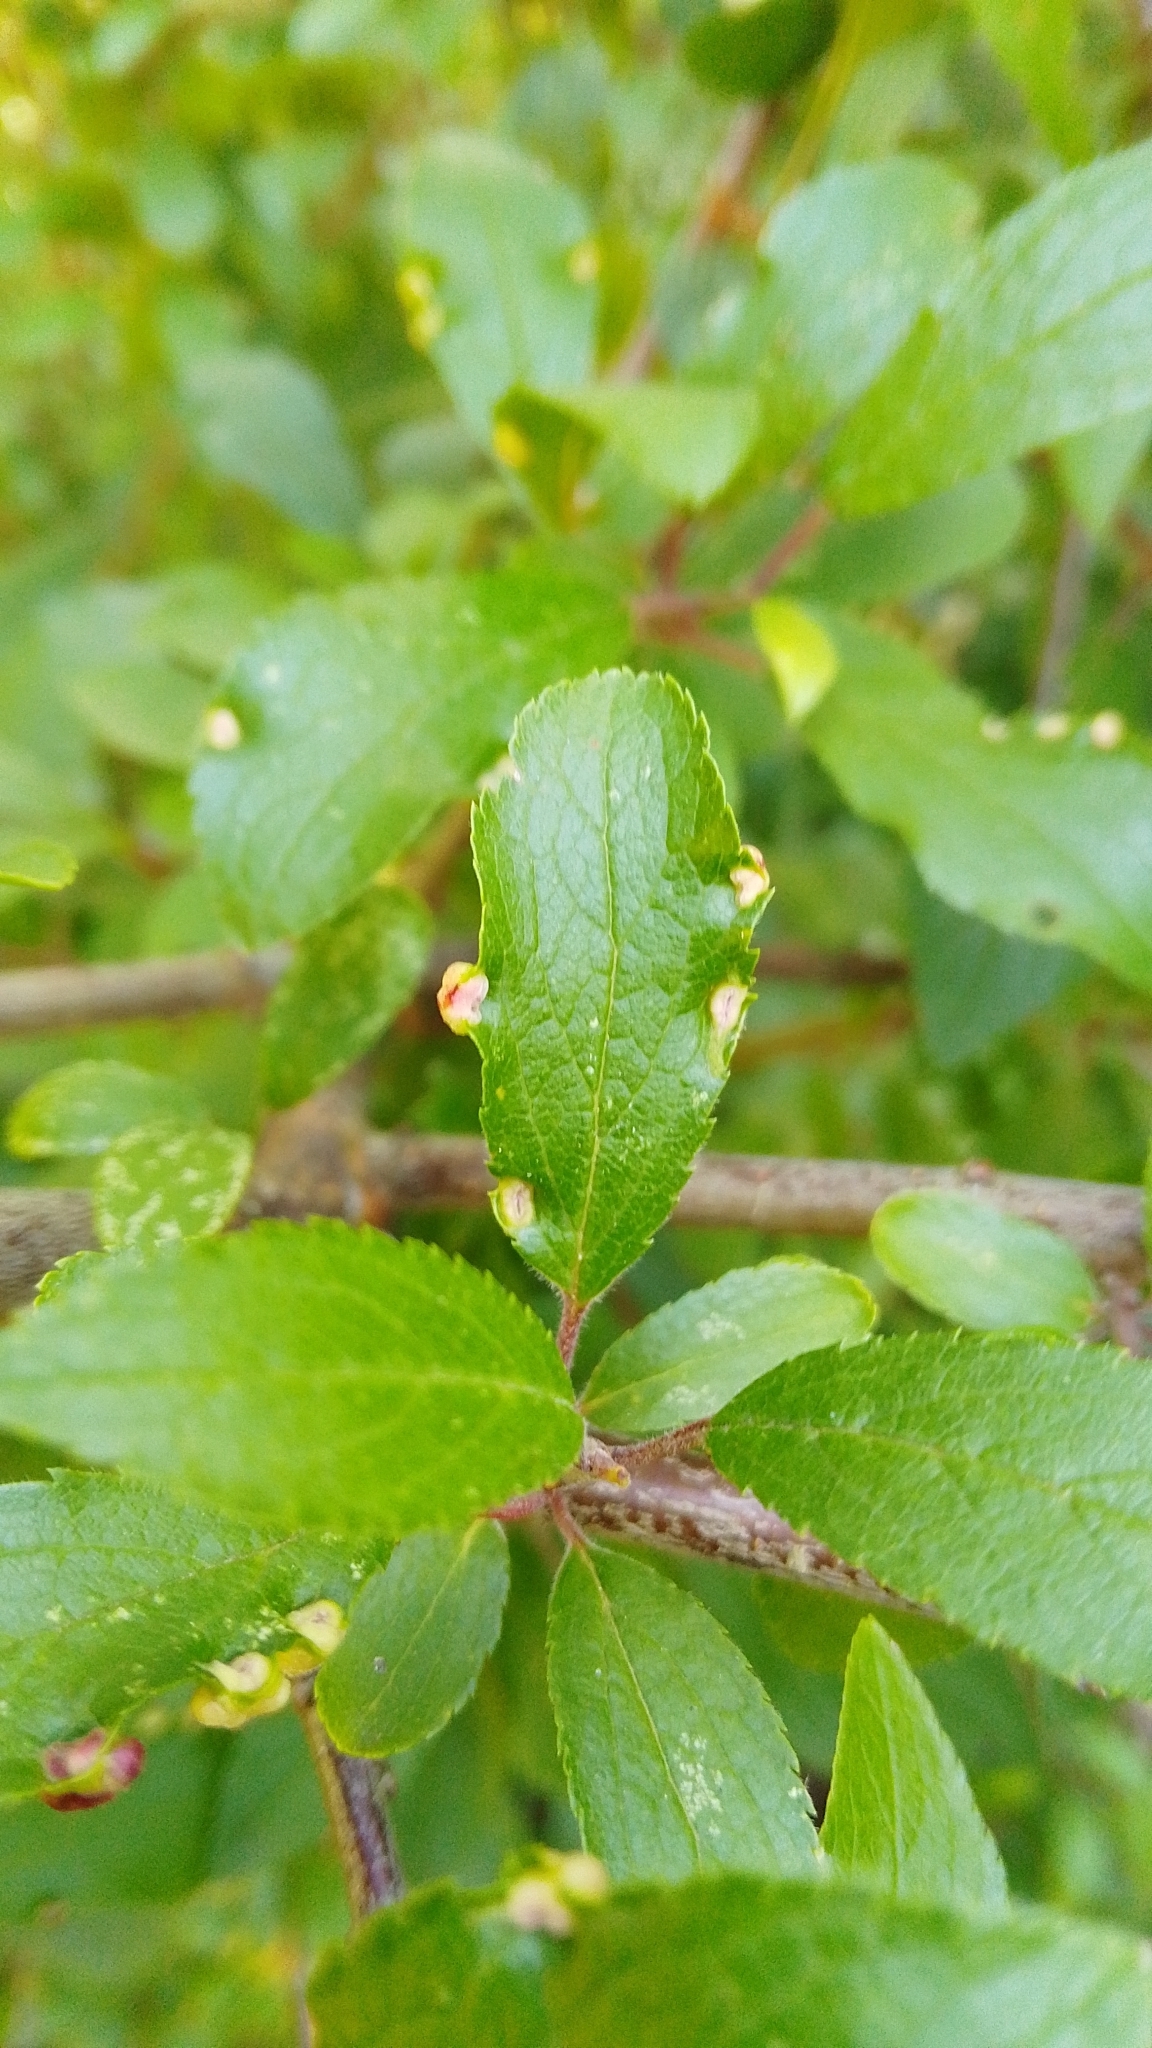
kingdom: Animalia
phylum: Arthropoda
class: Arachnida
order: Trombidiformes
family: Eriophyidae
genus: Eriophyes
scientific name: Eriophyes similis
